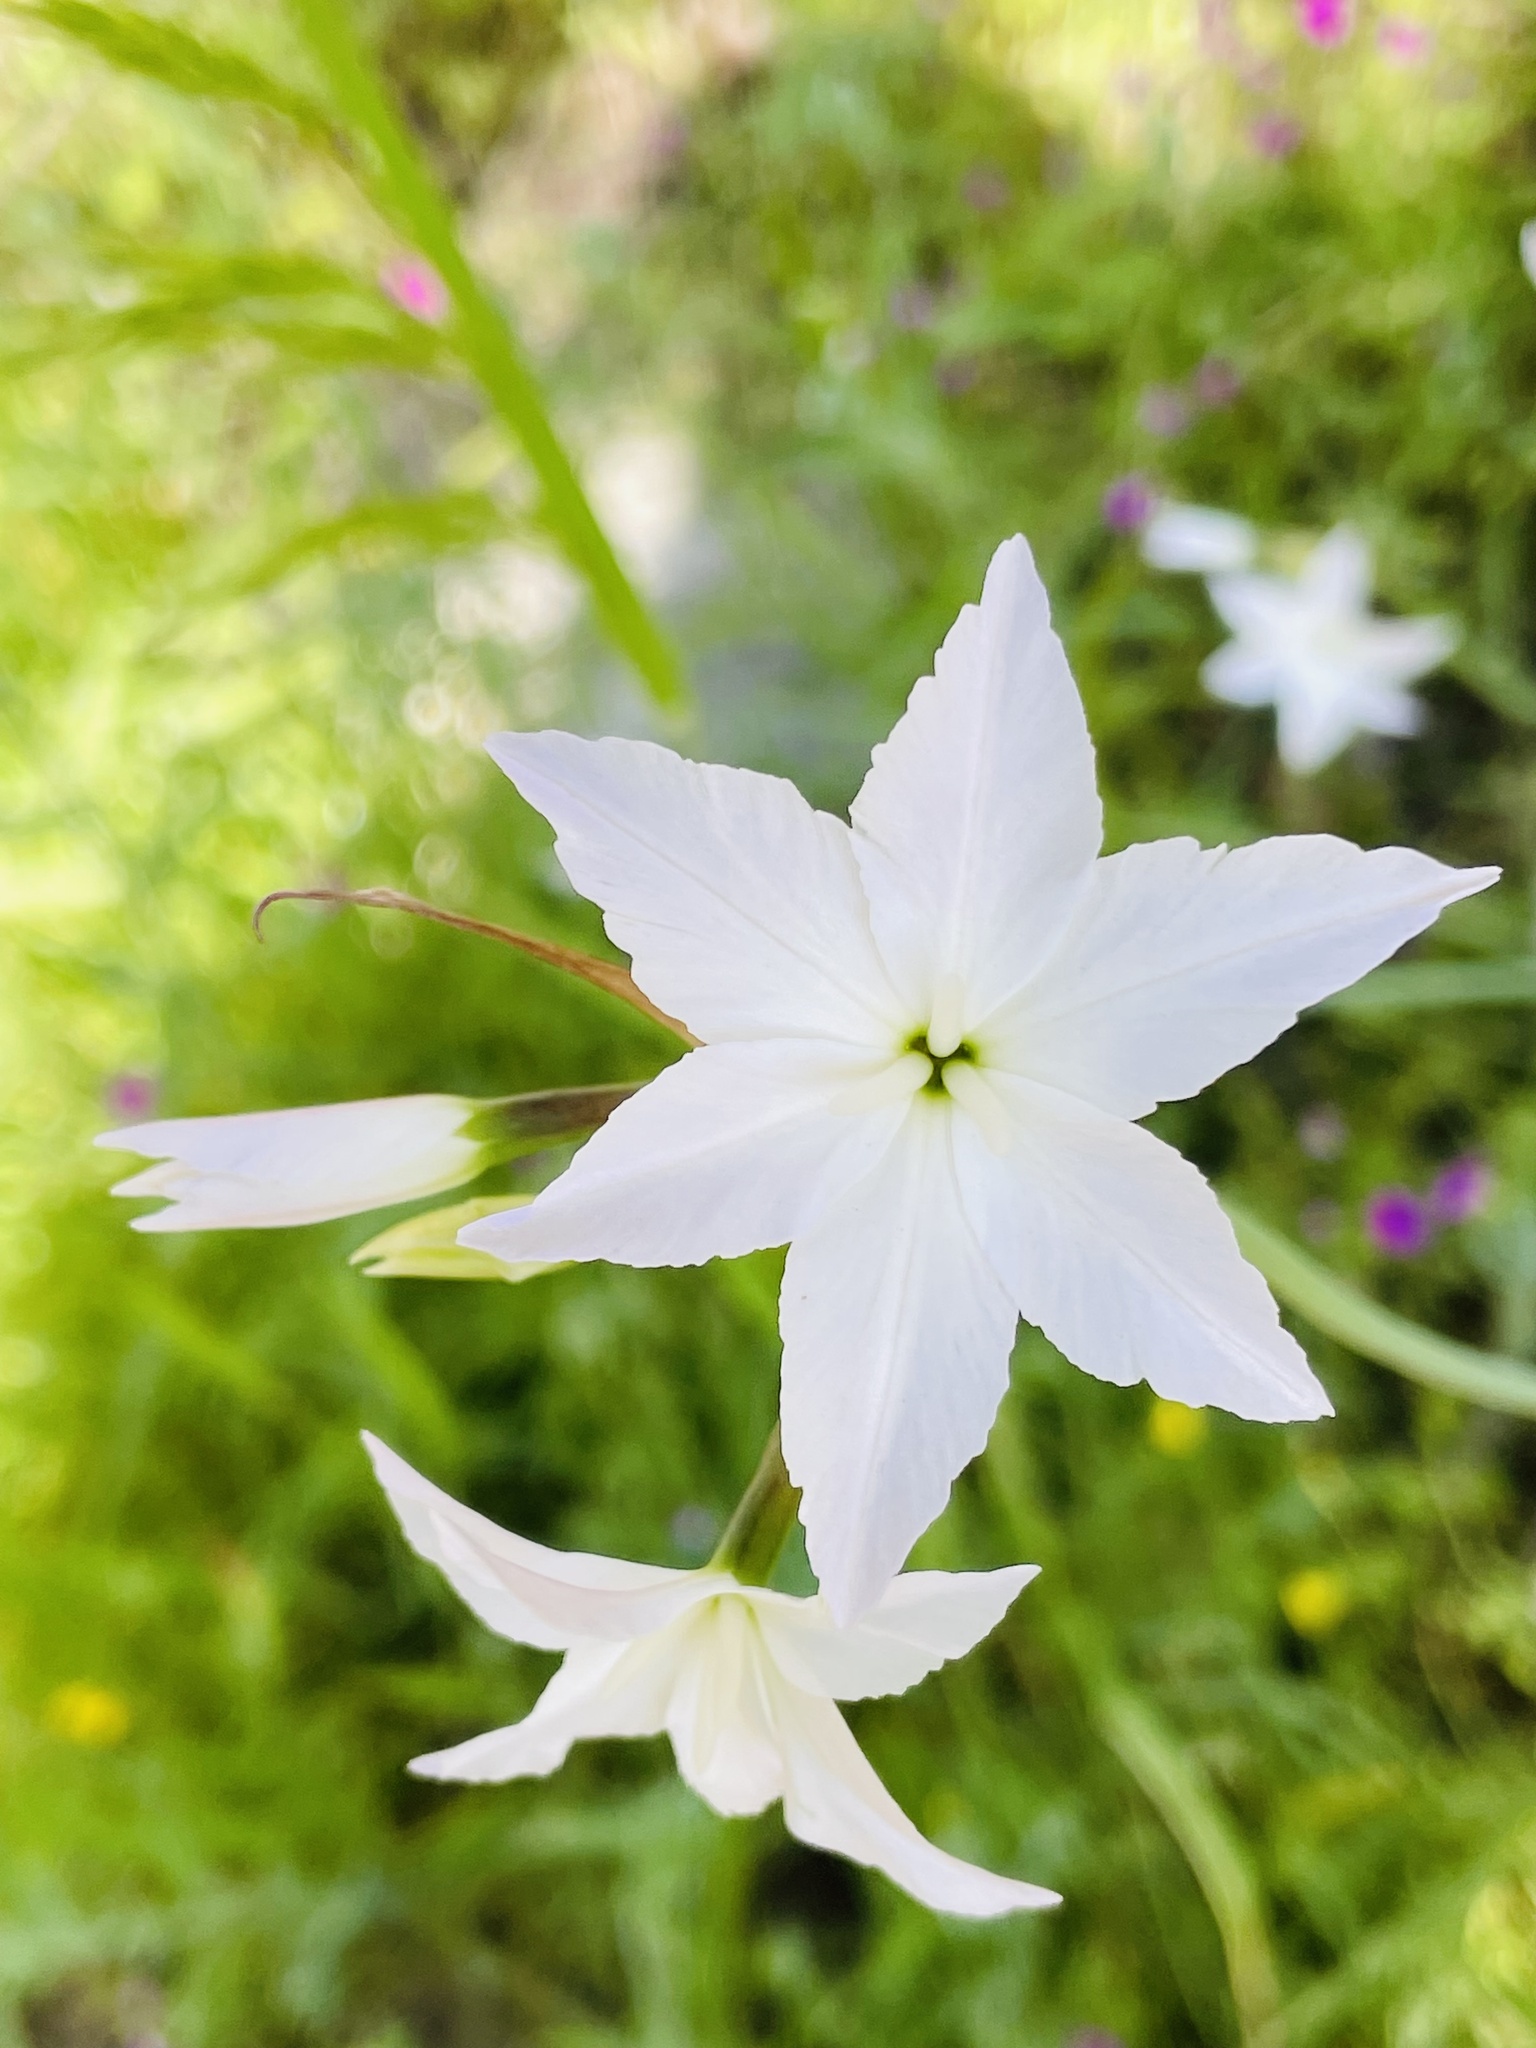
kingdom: Plantae
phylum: Tracheophyta
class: Liliopsida
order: Asparagales
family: Amaryllidaceae
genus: Leucocoryne
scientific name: Leucocoryne ixioides
